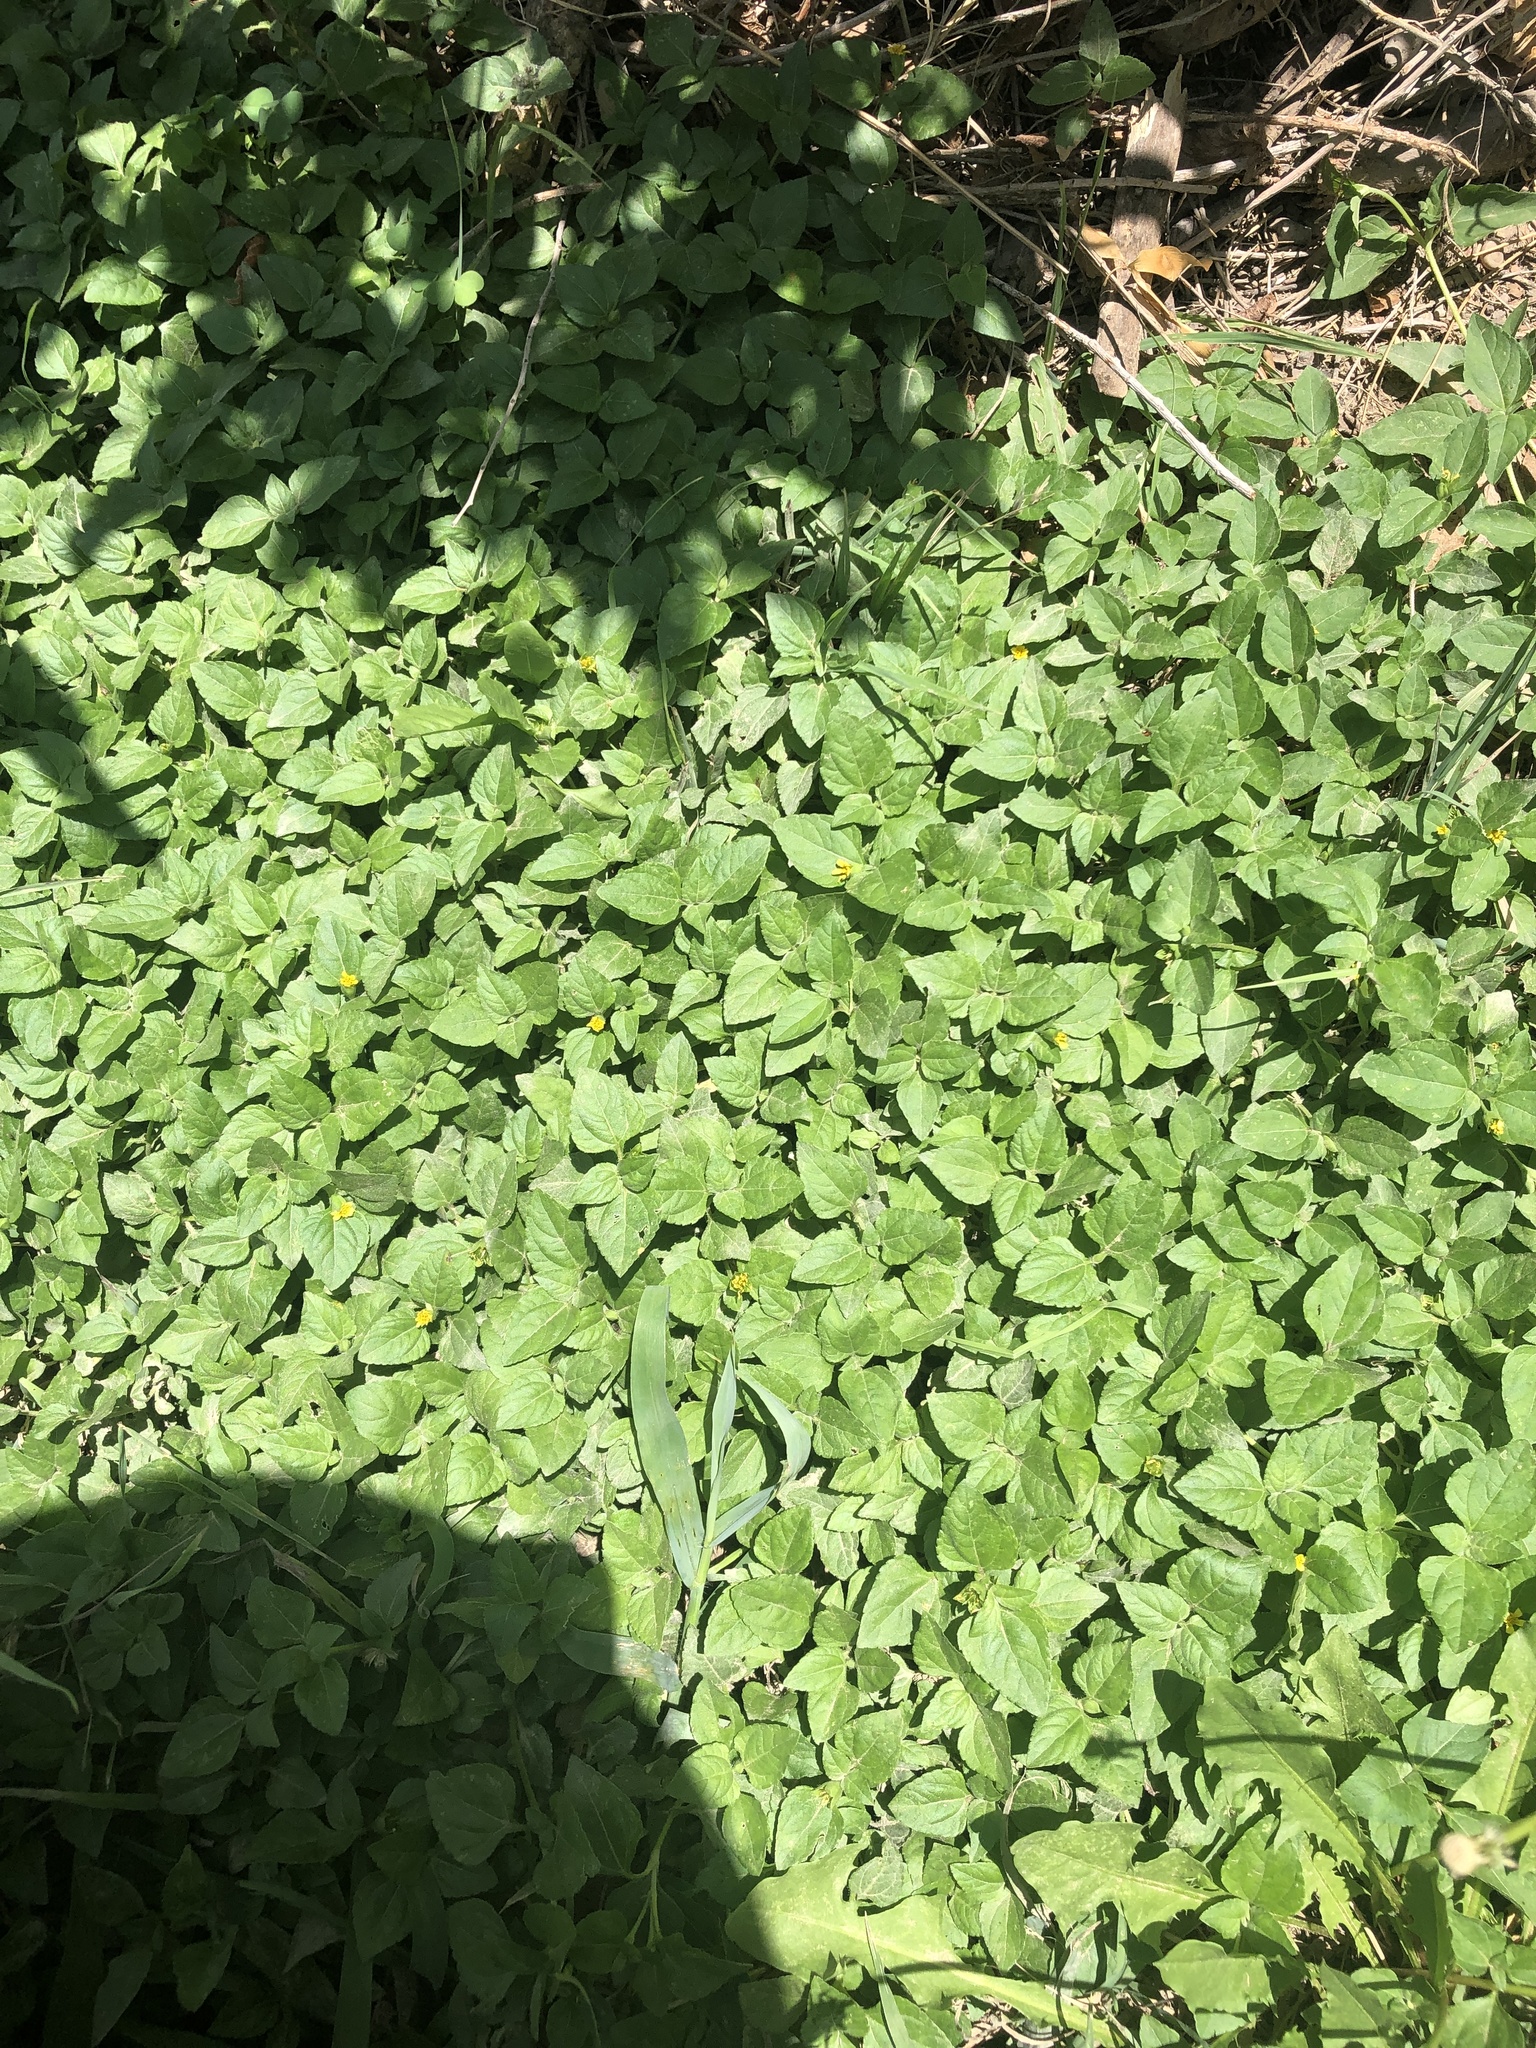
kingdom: Plantae
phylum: Tracheophyta
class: Magnoliopsida
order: Asterales
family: Asteraceae
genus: Calyptocarpus
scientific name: Calyptocarpus vialis
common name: Straggler daisy
